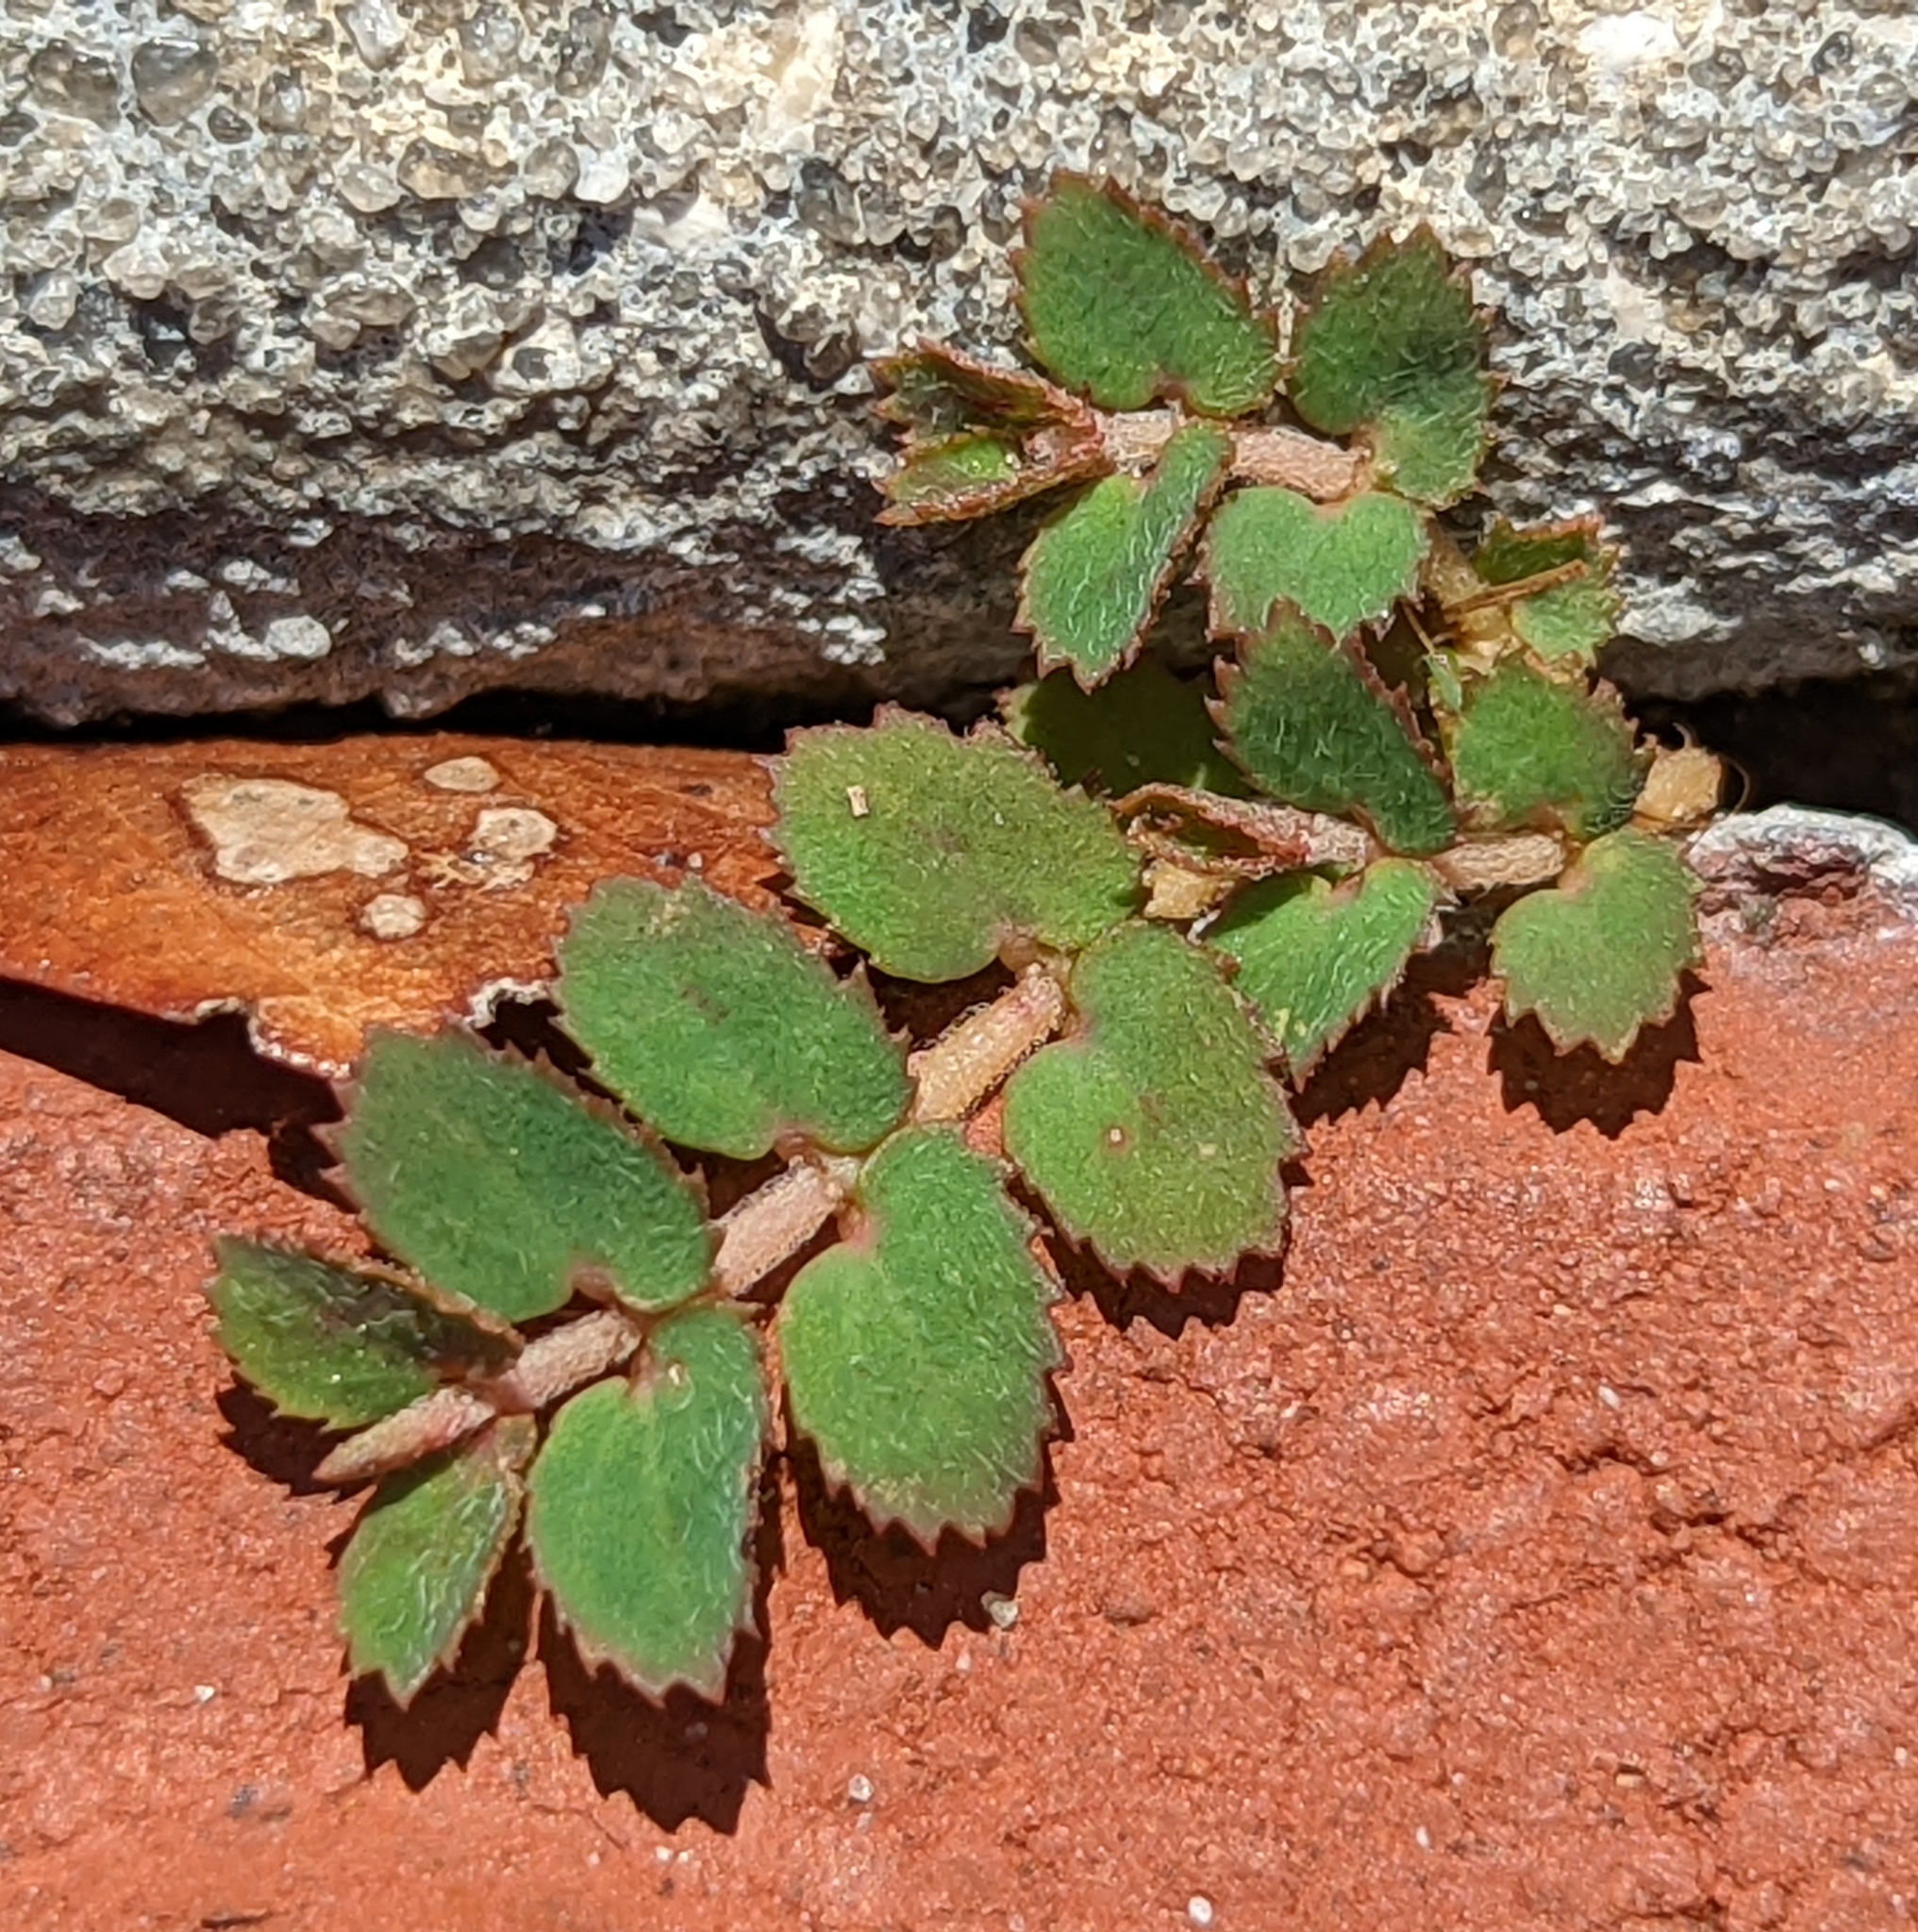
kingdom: Plantae
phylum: Tracheophyta
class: Magnoliopsida
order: Malpighiales
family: Euphorbiaceae
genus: Euphorbia
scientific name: Euphorbia thymifolia
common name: Gulf sandmat
